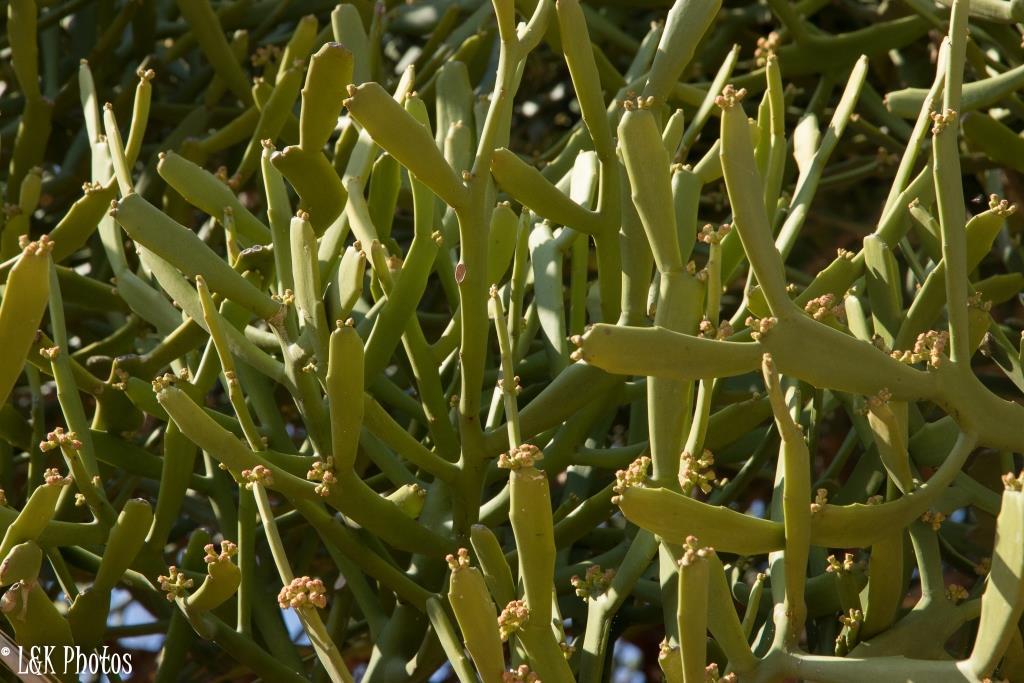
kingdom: Plantae
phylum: Tracheophyta
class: Magnoliopsida
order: Malpighiales
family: Euphorbiaceae
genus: Euphorbia
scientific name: Euphorbia xylophylloides
